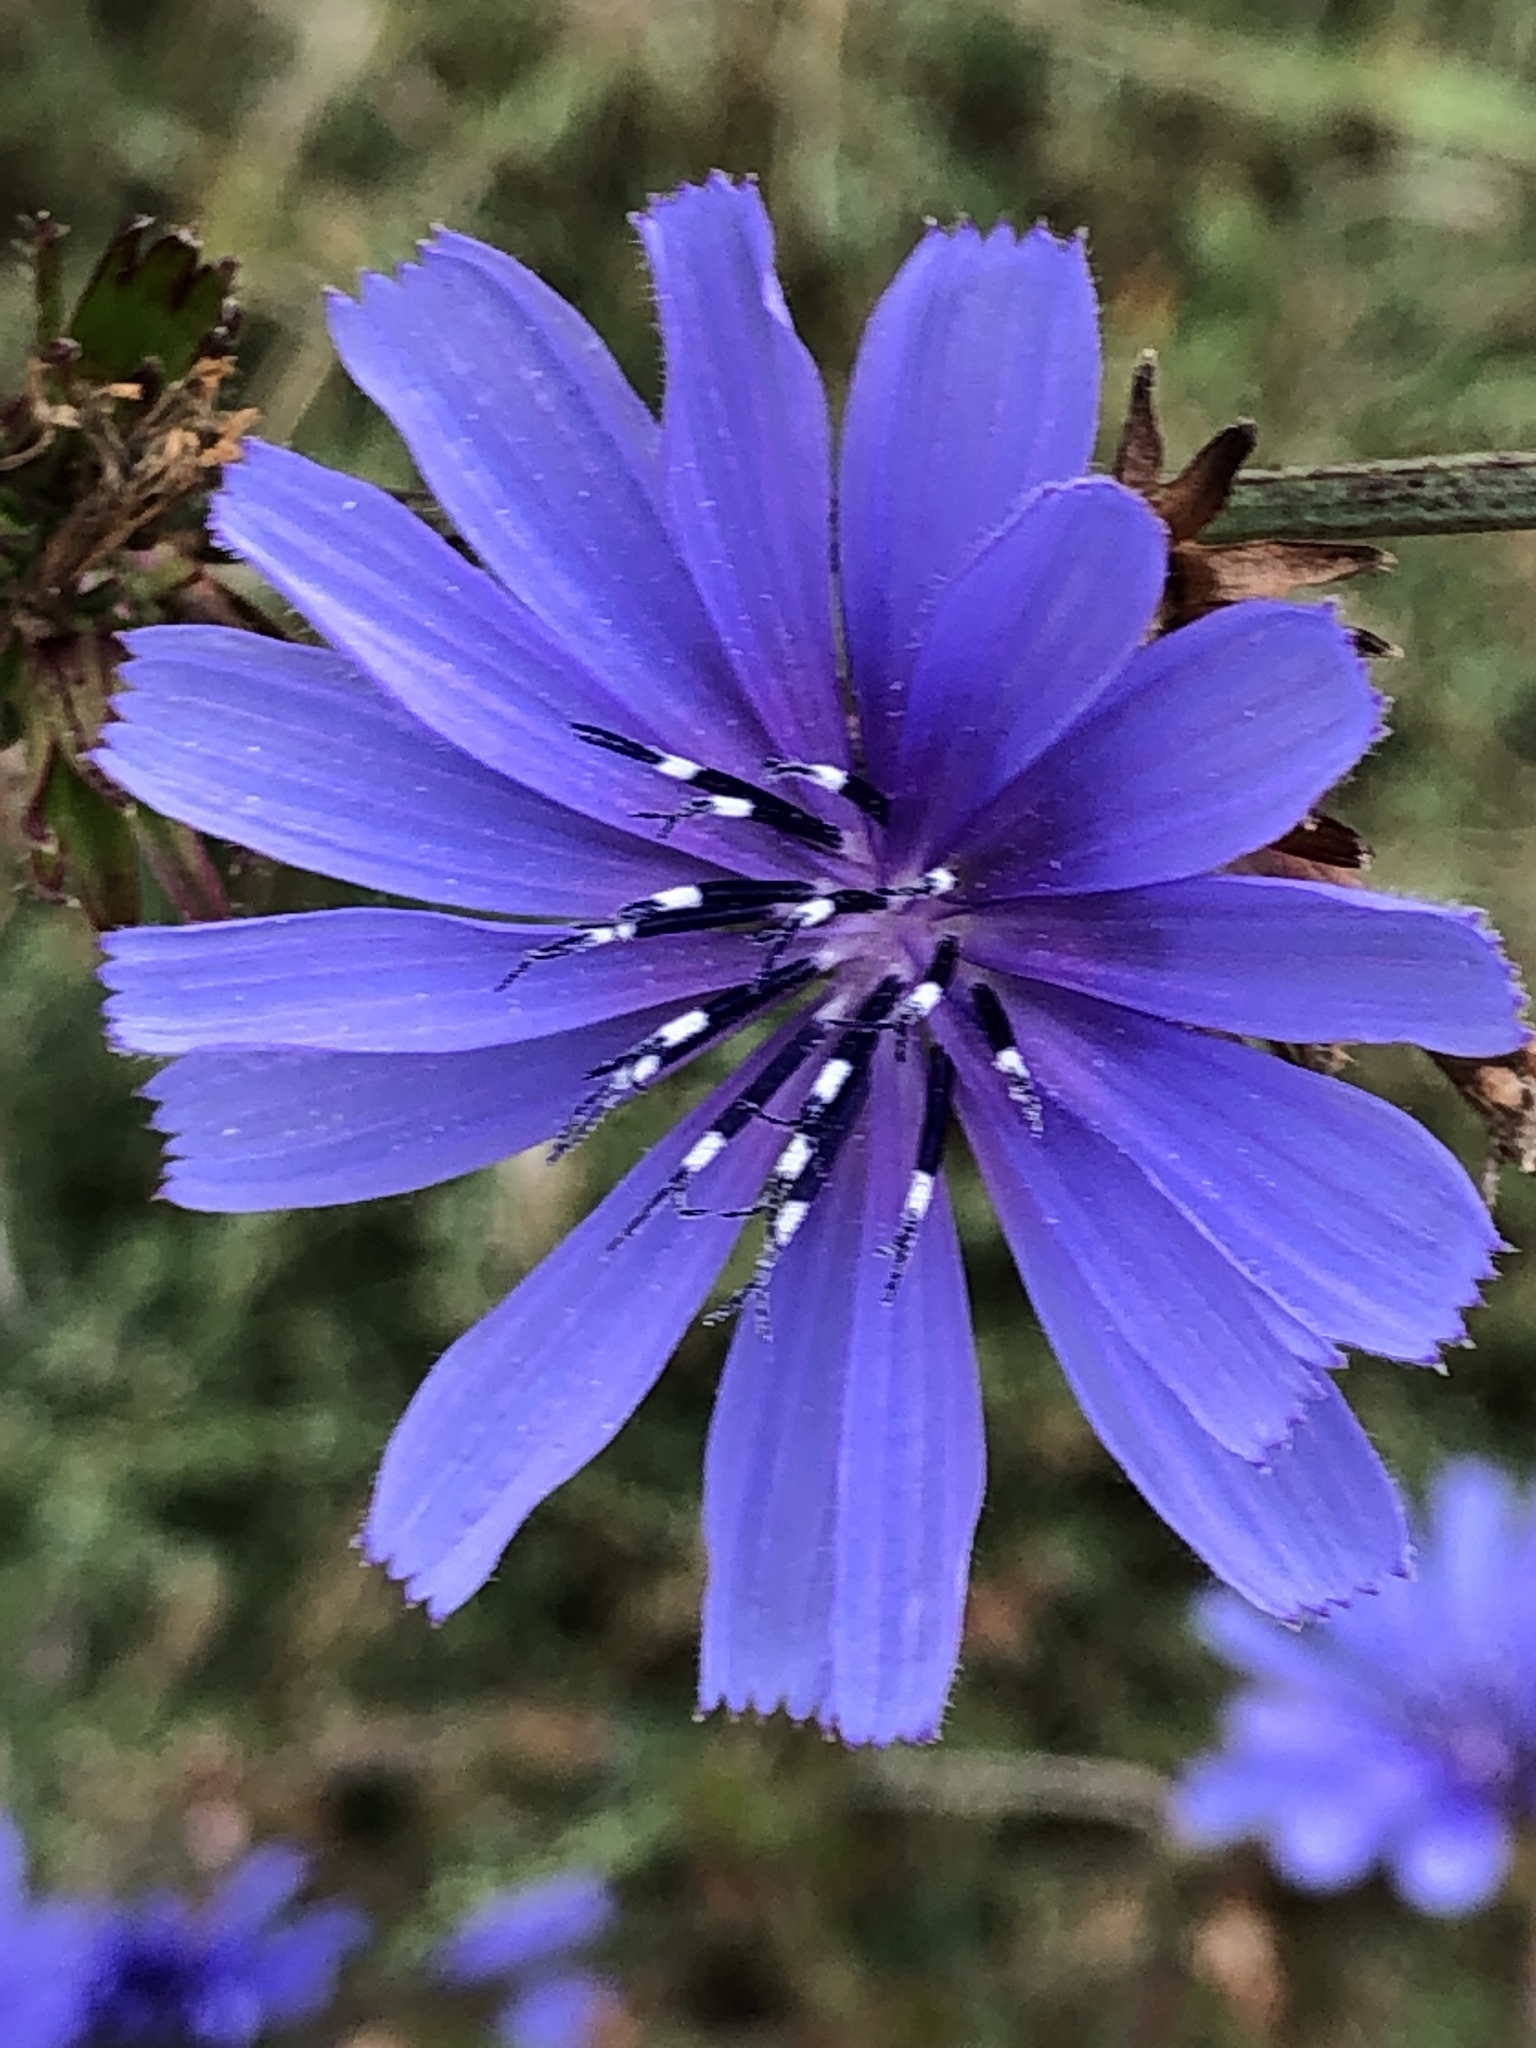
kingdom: Plantae
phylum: Tracheophyta
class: Magnoliopsida
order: Asterales
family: Asteraceae
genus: Cichorium
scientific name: Cichorium intybus
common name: Chicory
